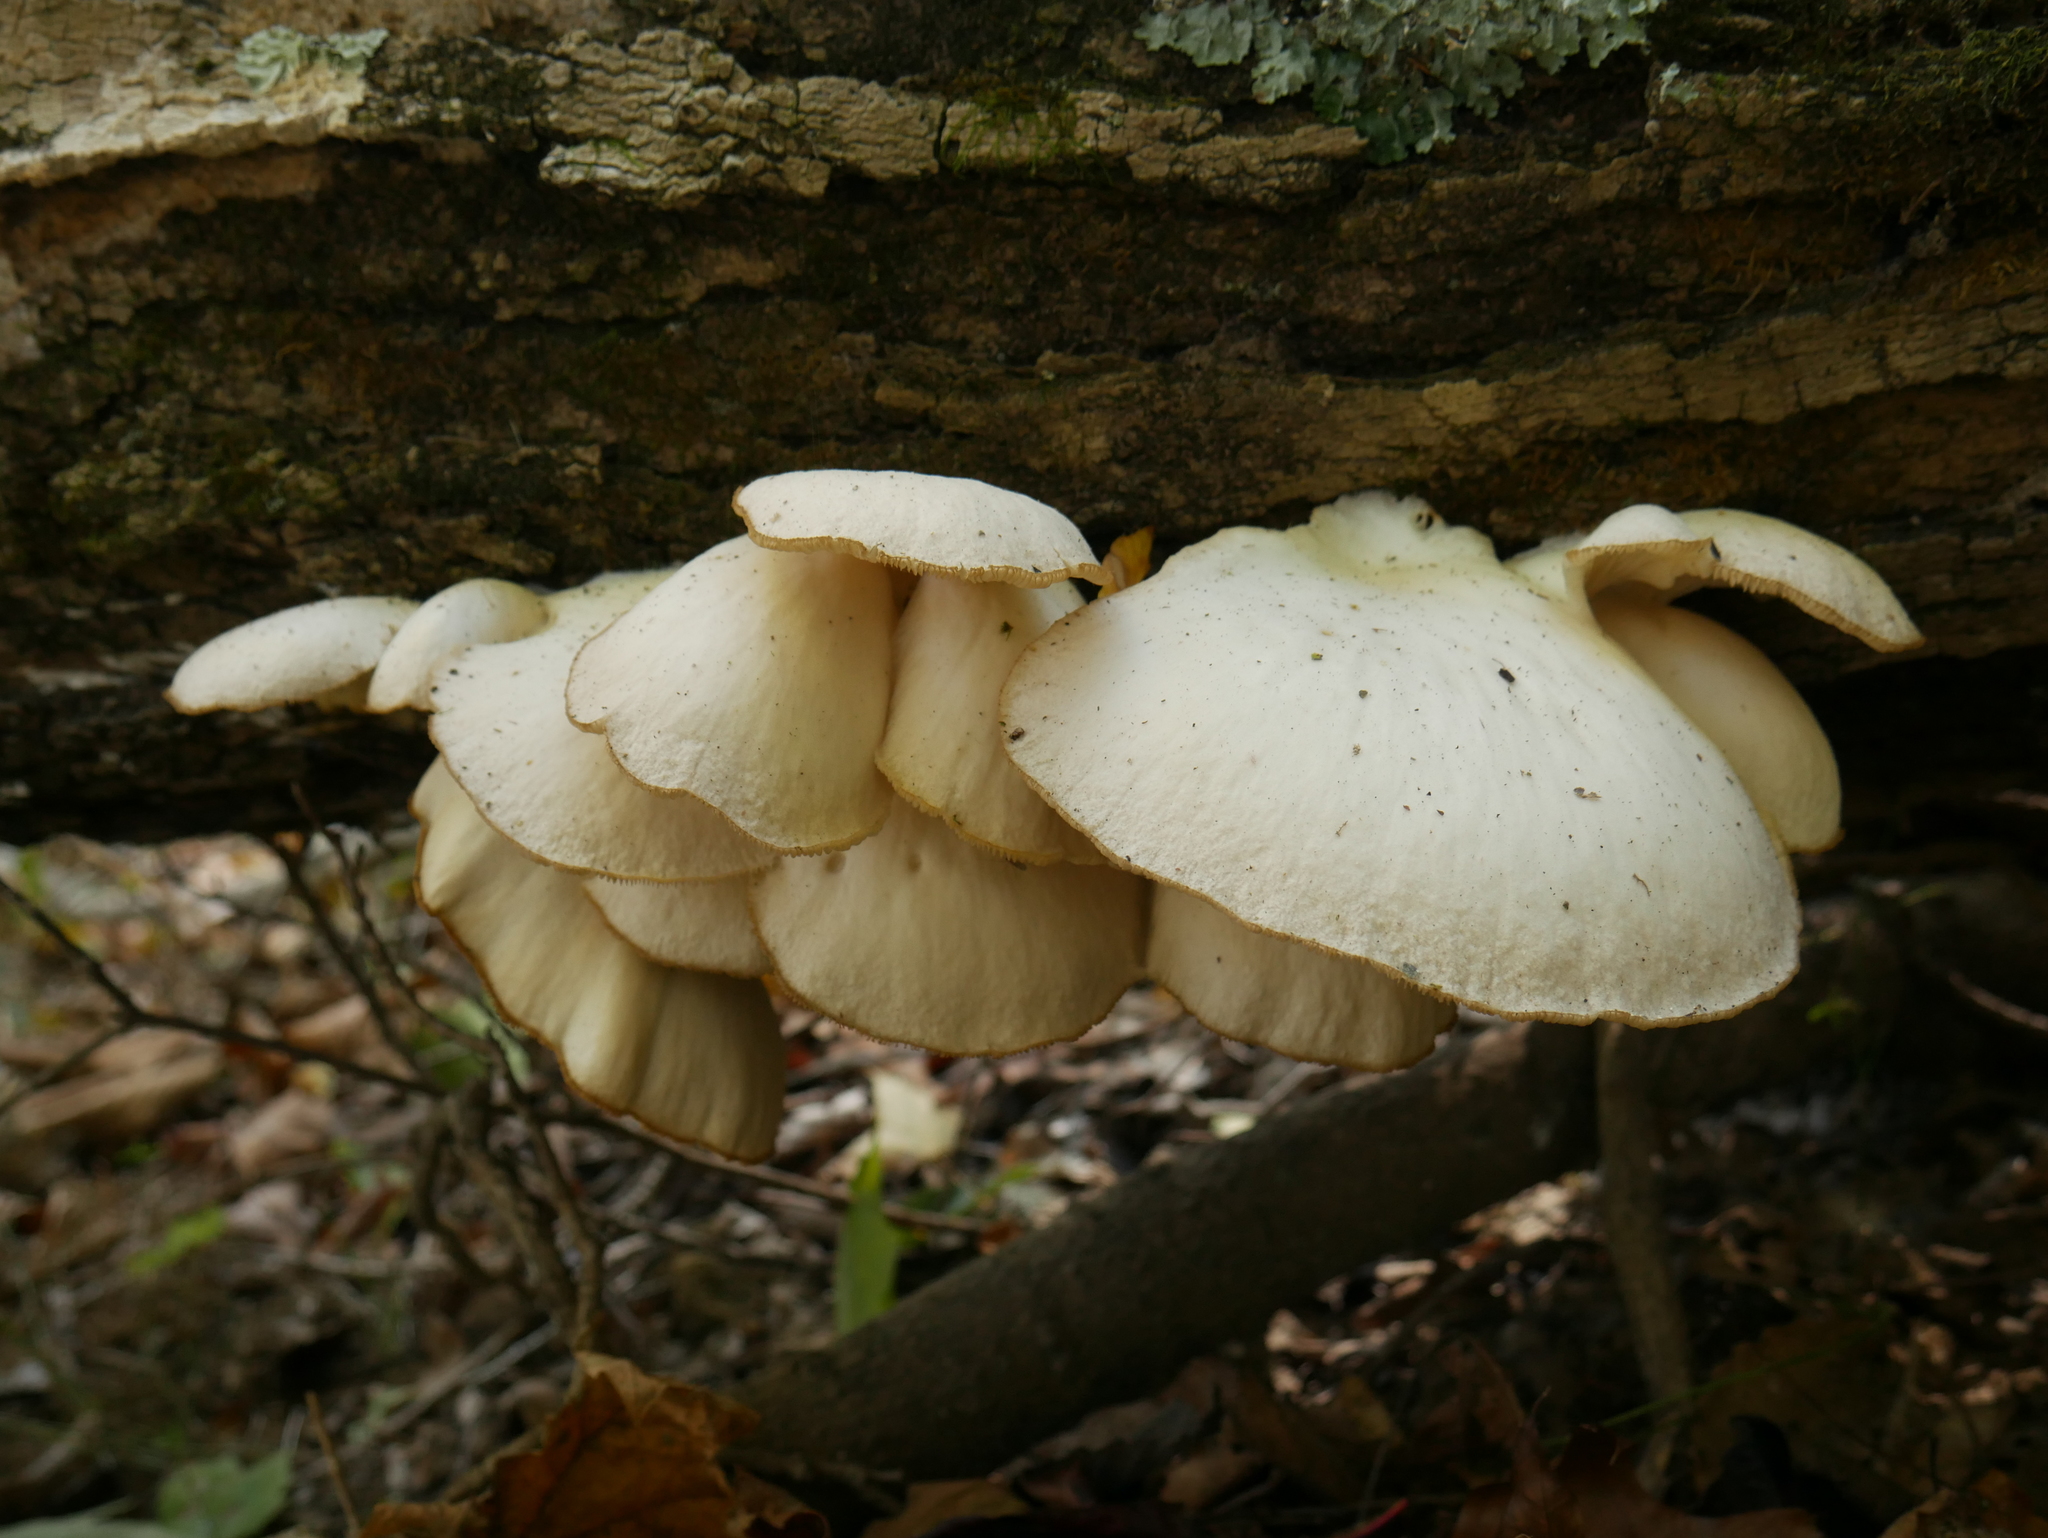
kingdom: Fungi
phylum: Basidiomycota
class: Agaricomycetes
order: Agaricales
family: Pleurotaceae
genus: Pleurotus
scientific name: Pleurotus populinus
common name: Aspen oyster mushroom
